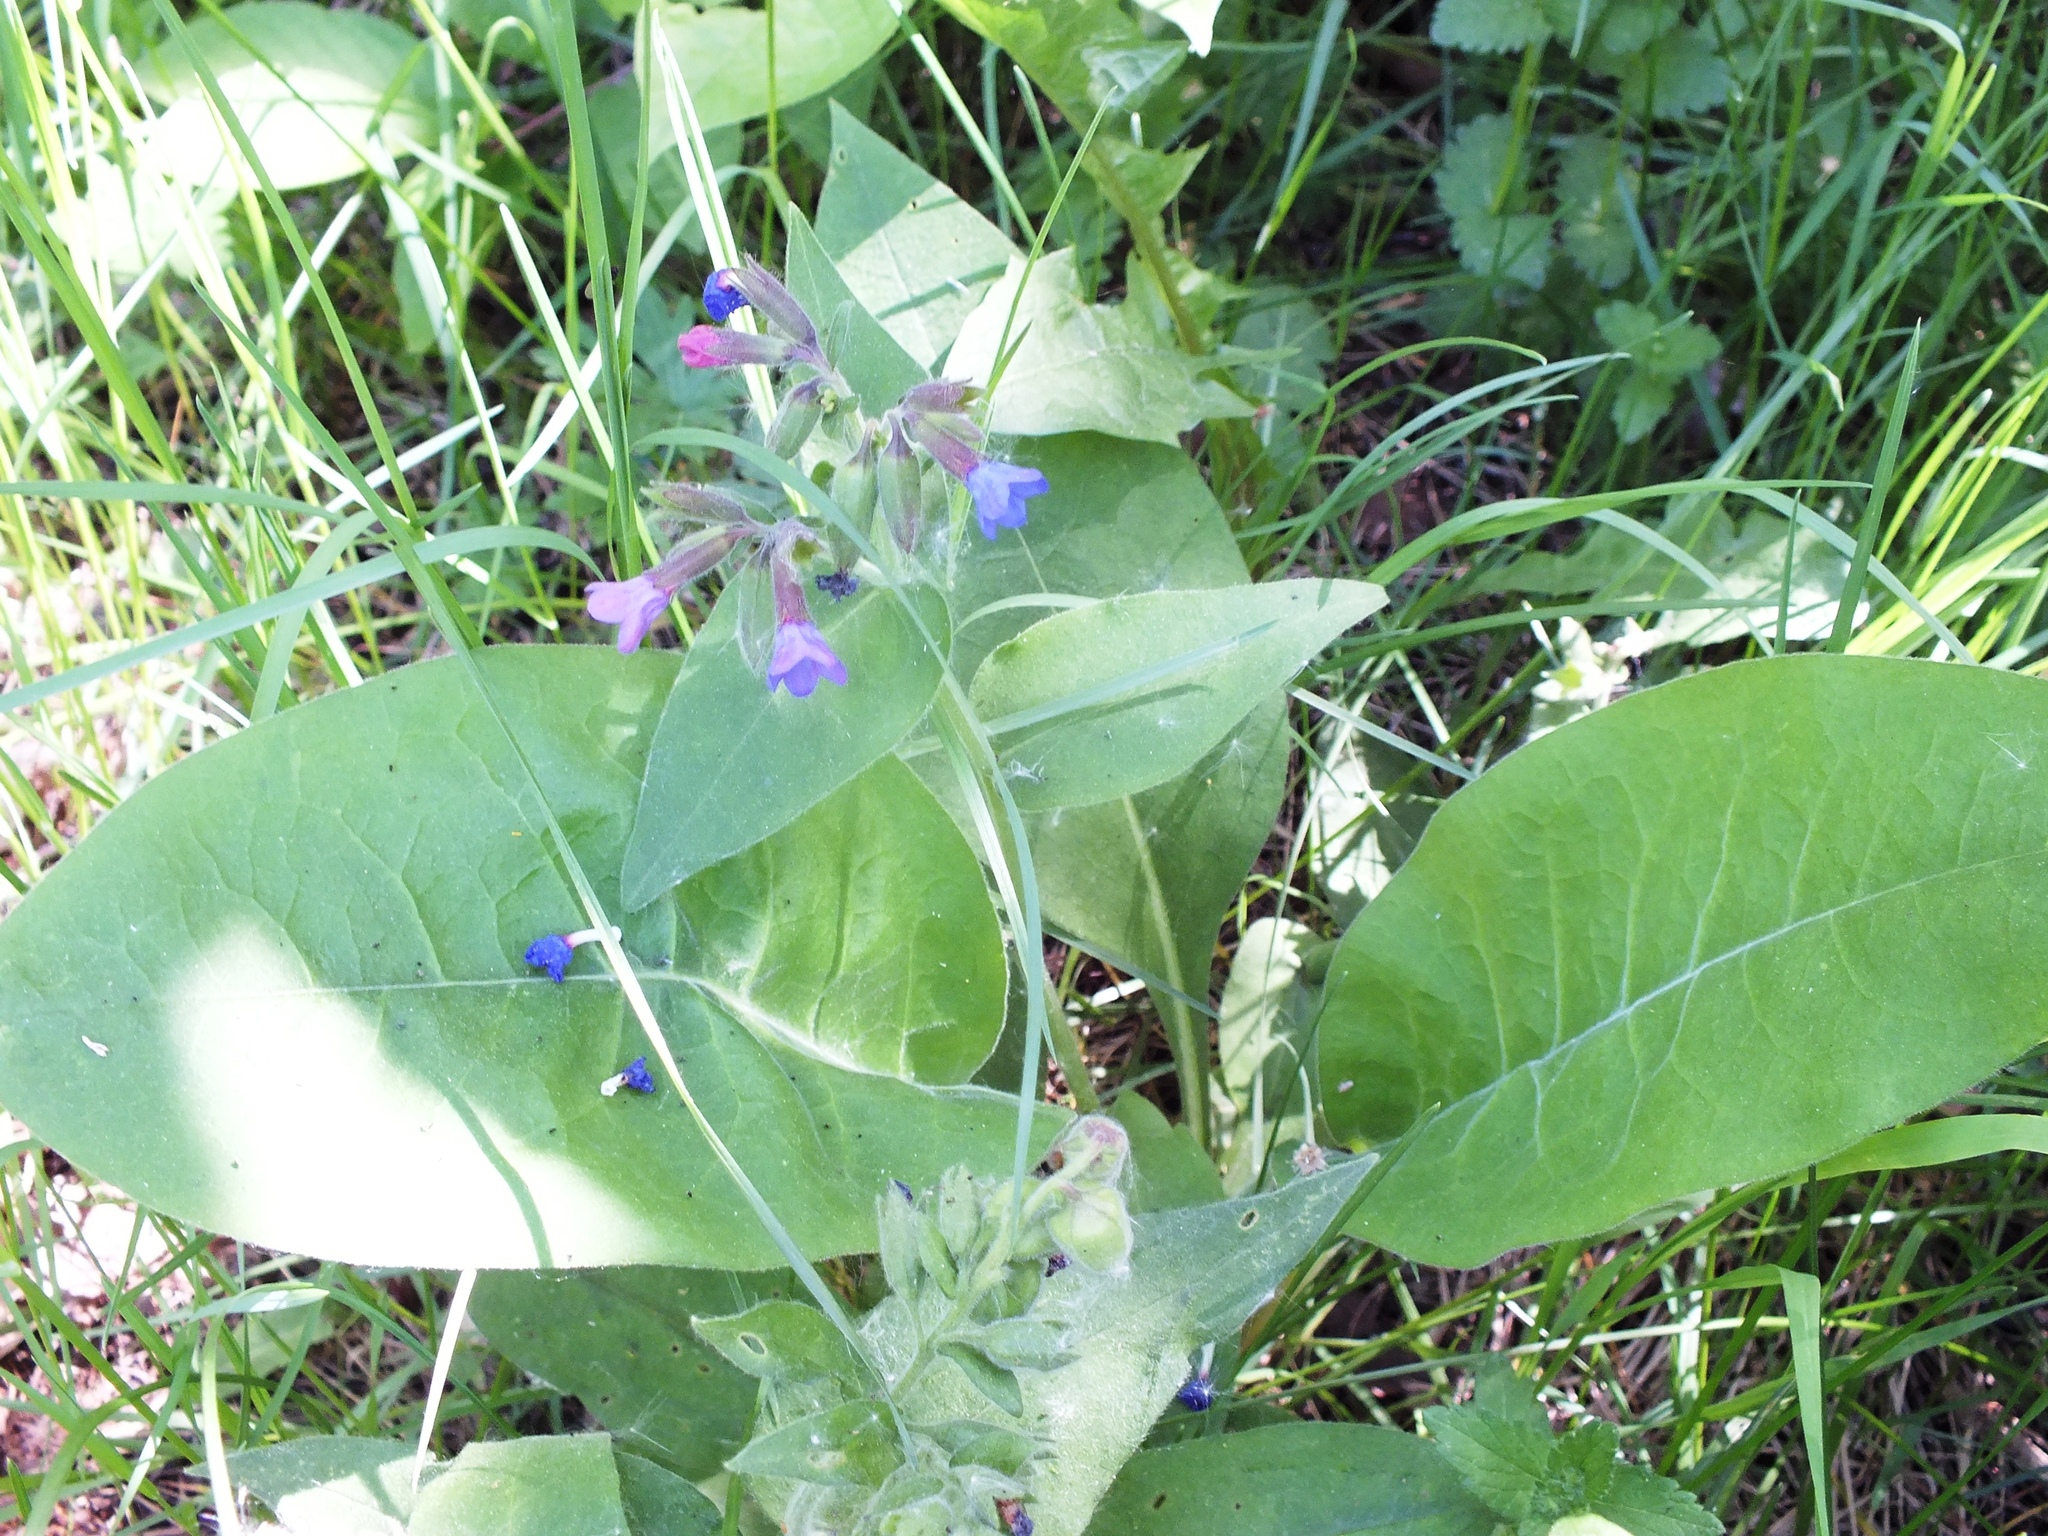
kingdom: Plantae
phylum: Tracheophyta
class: Magnoliopsida
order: Boraginales
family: Boraginaceae
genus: Pulmonaria
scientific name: Pulmonaria mollis
